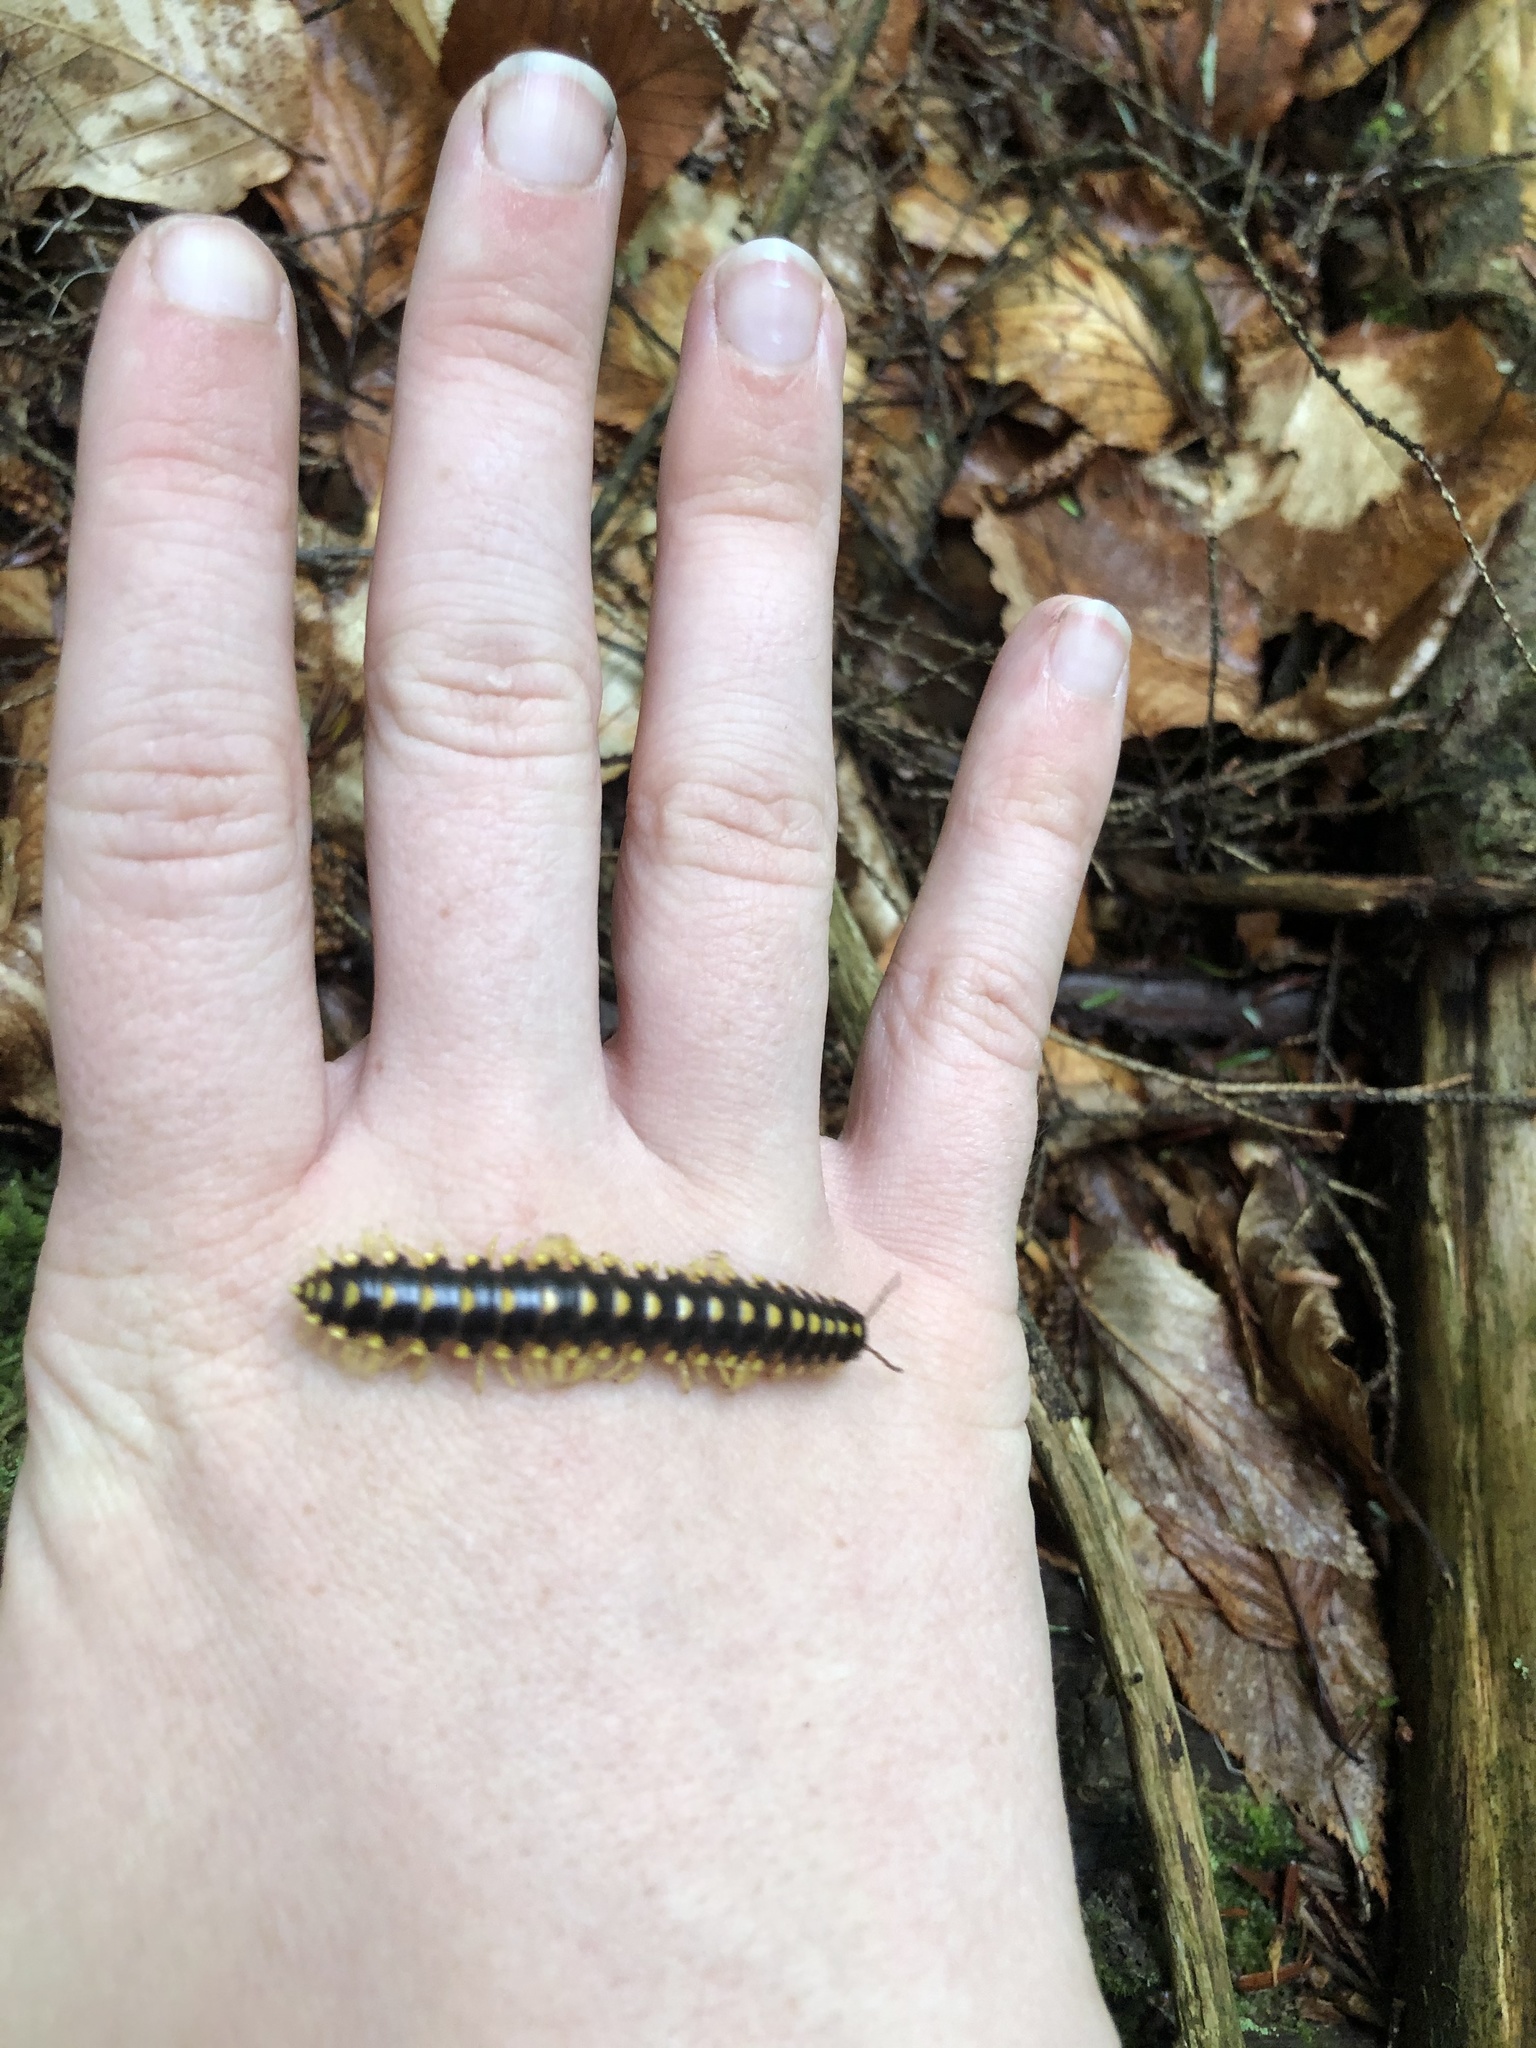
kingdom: Animalia
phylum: Arthropoda
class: Diplopoda
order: Polydesmida
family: Xystodesmidae
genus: Rudiloria
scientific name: Rudiloria trimaculata
